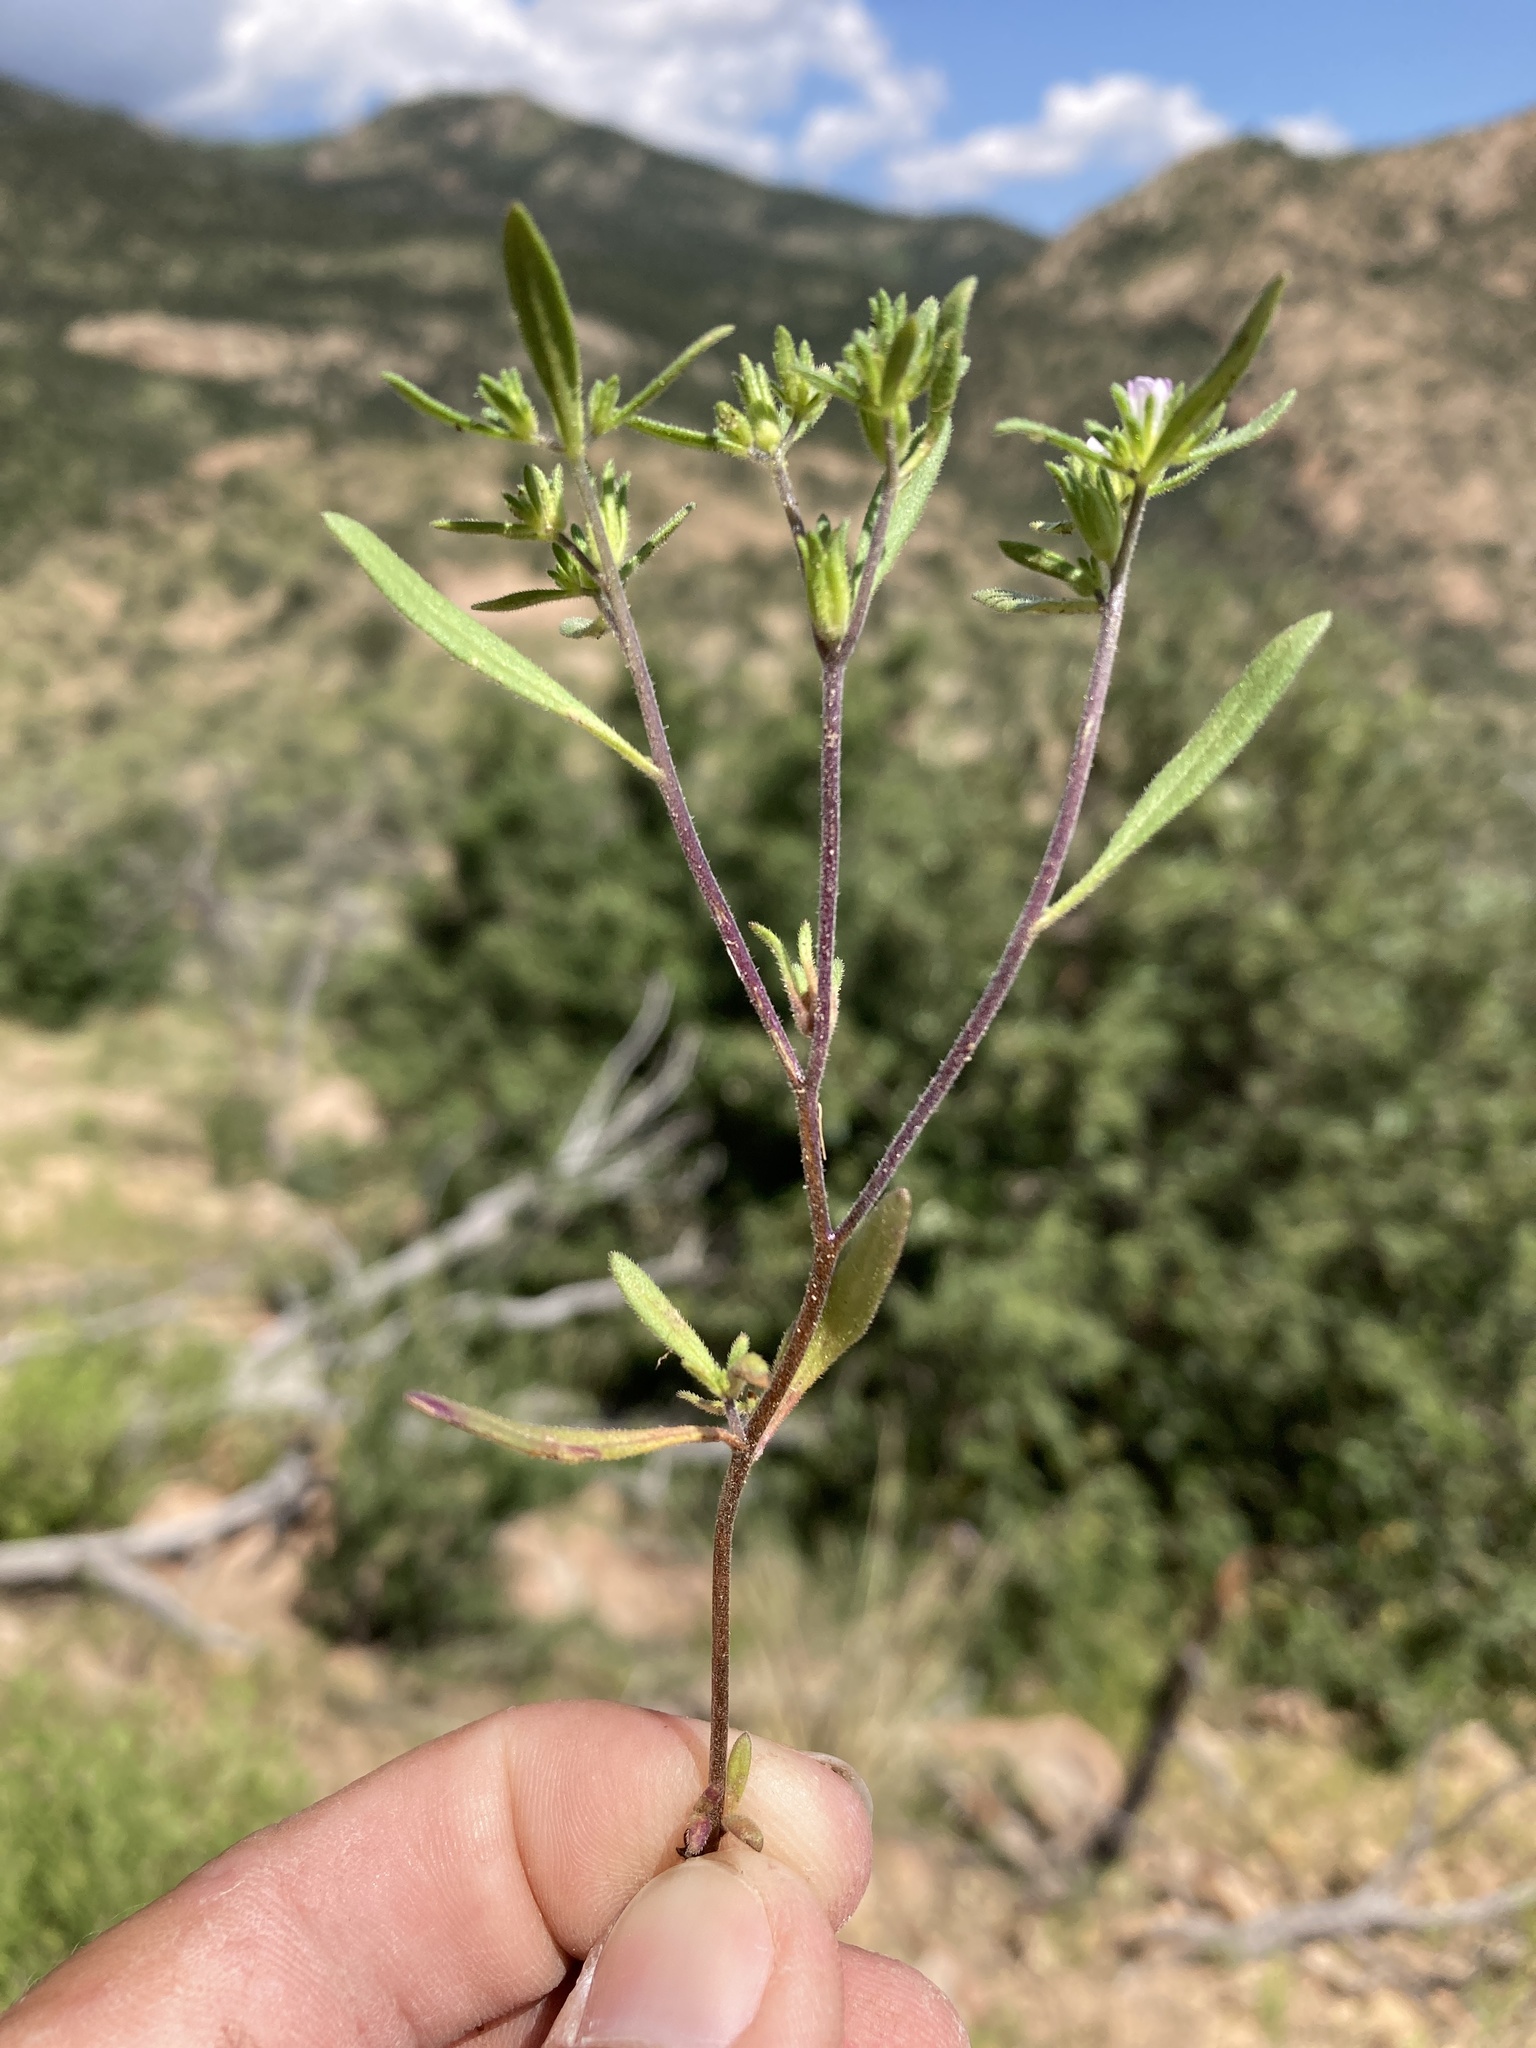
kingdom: Plantae
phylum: Tracheophyta
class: Magnoliopsida
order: Boraginales
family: Namaceae
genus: Nama
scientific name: Nama dichotoma
